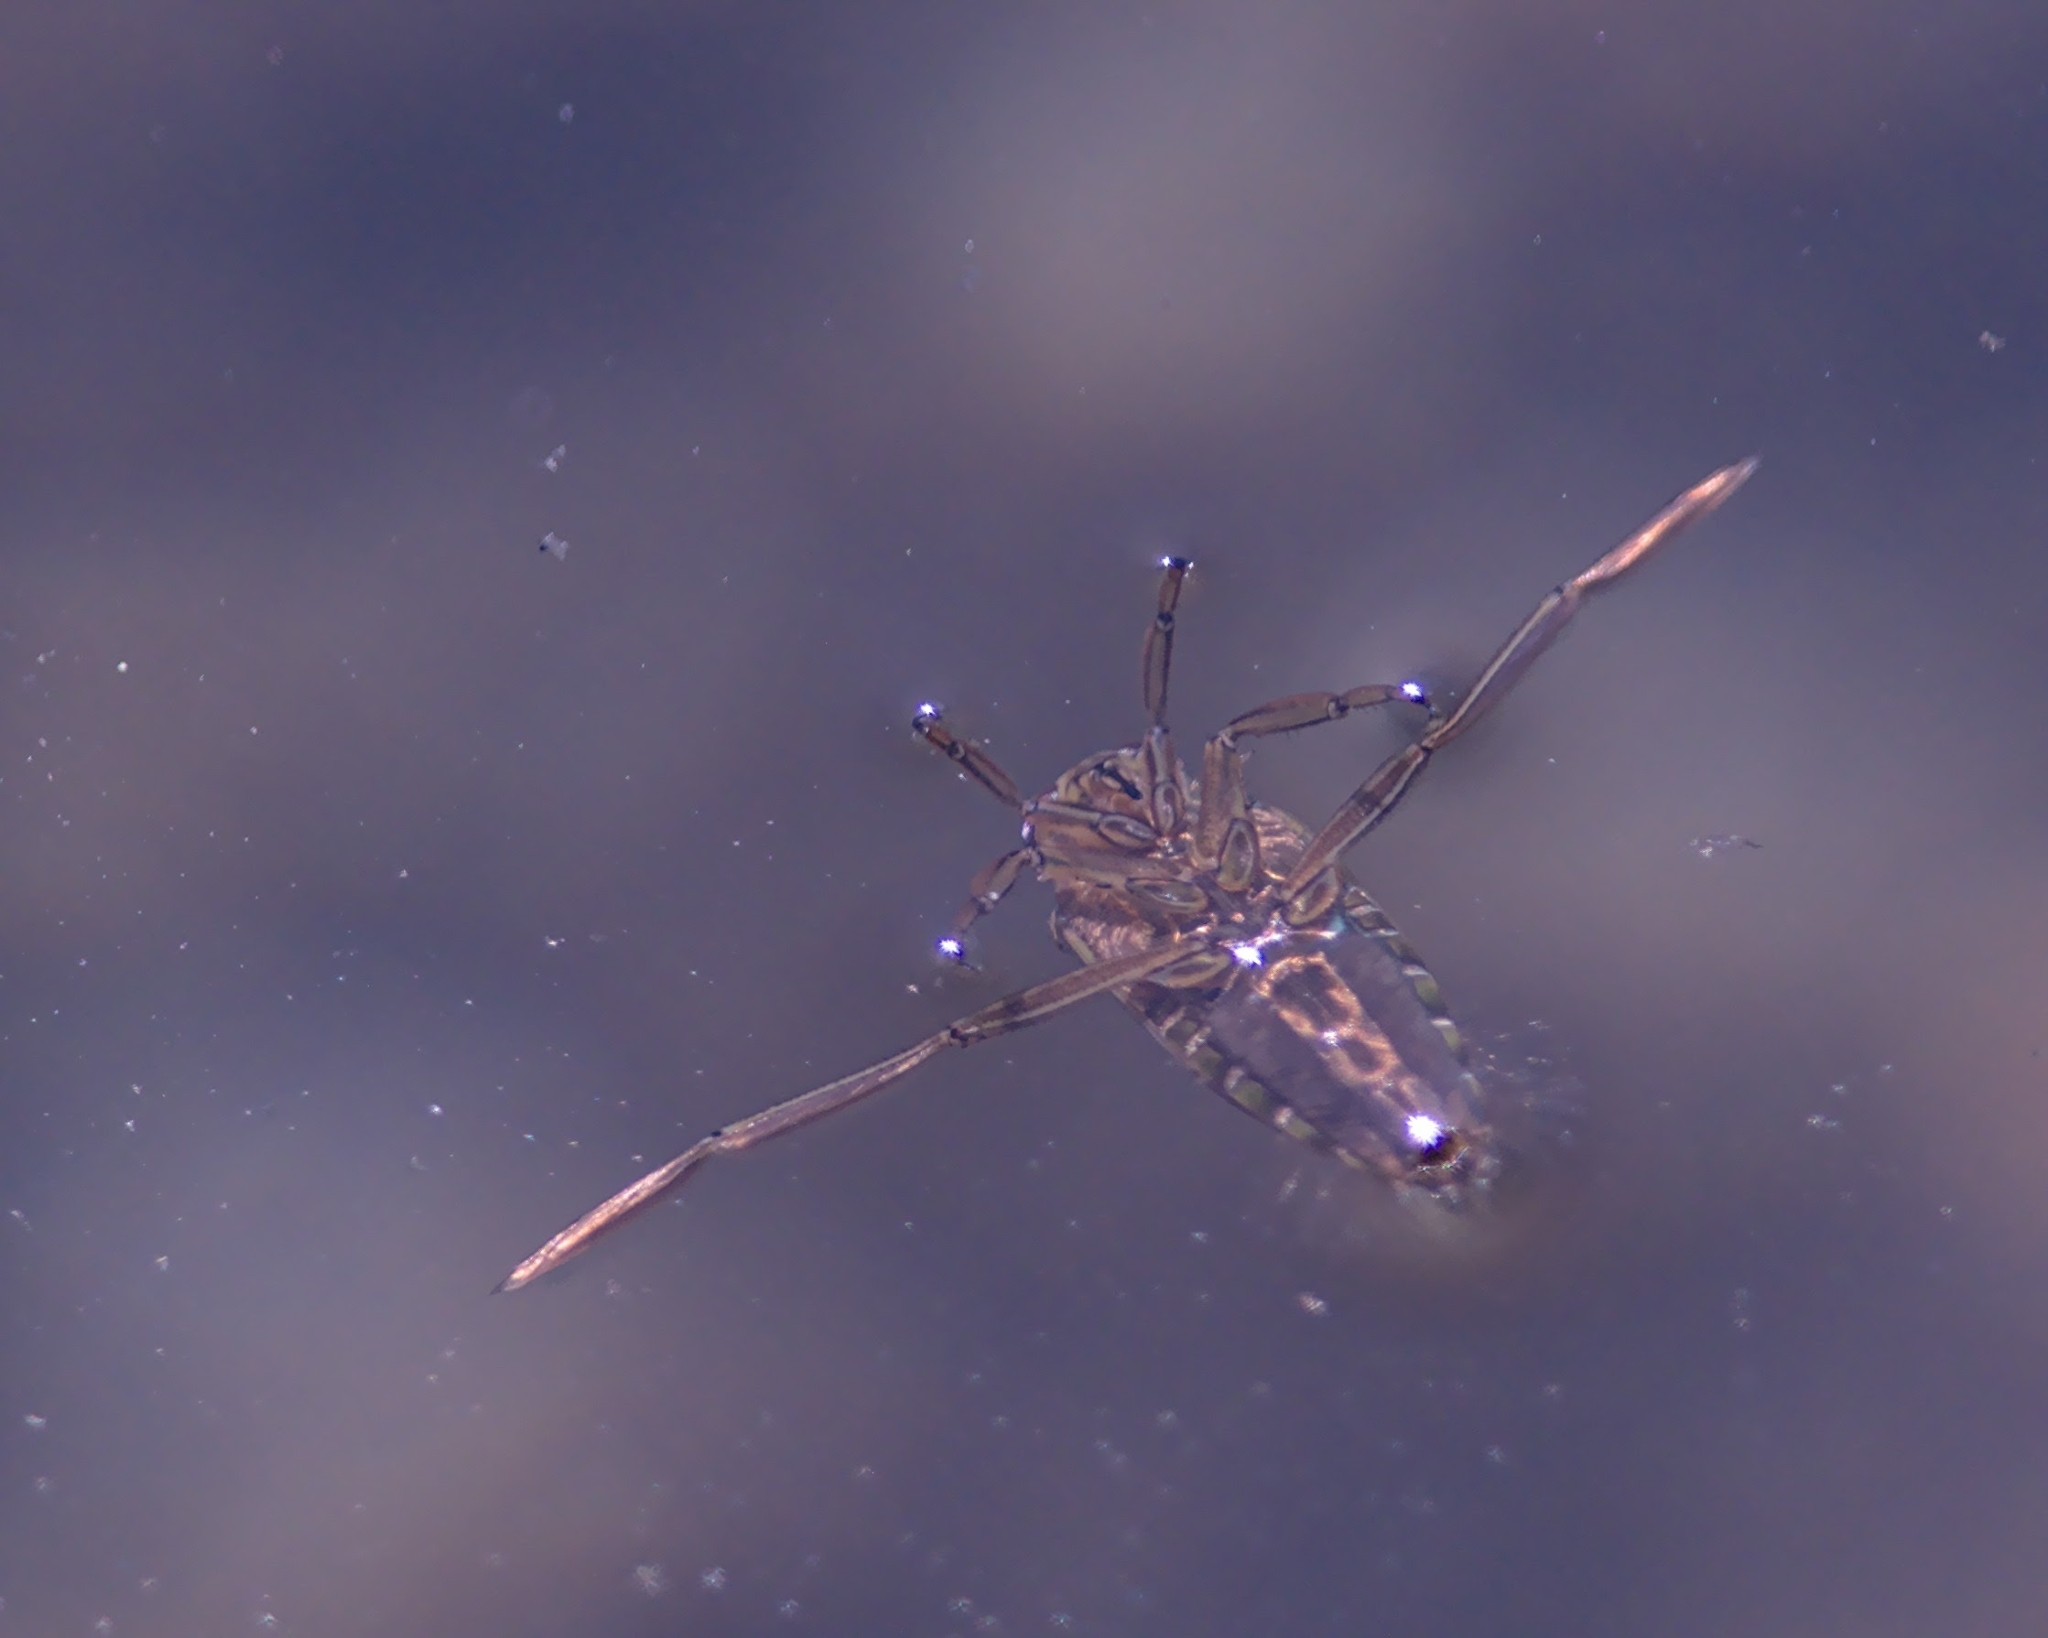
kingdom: Animalia
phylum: Arthropoda
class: Insecta
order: Hemiptera
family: Notonectidae
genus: Notonecta
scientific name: Notonecta
